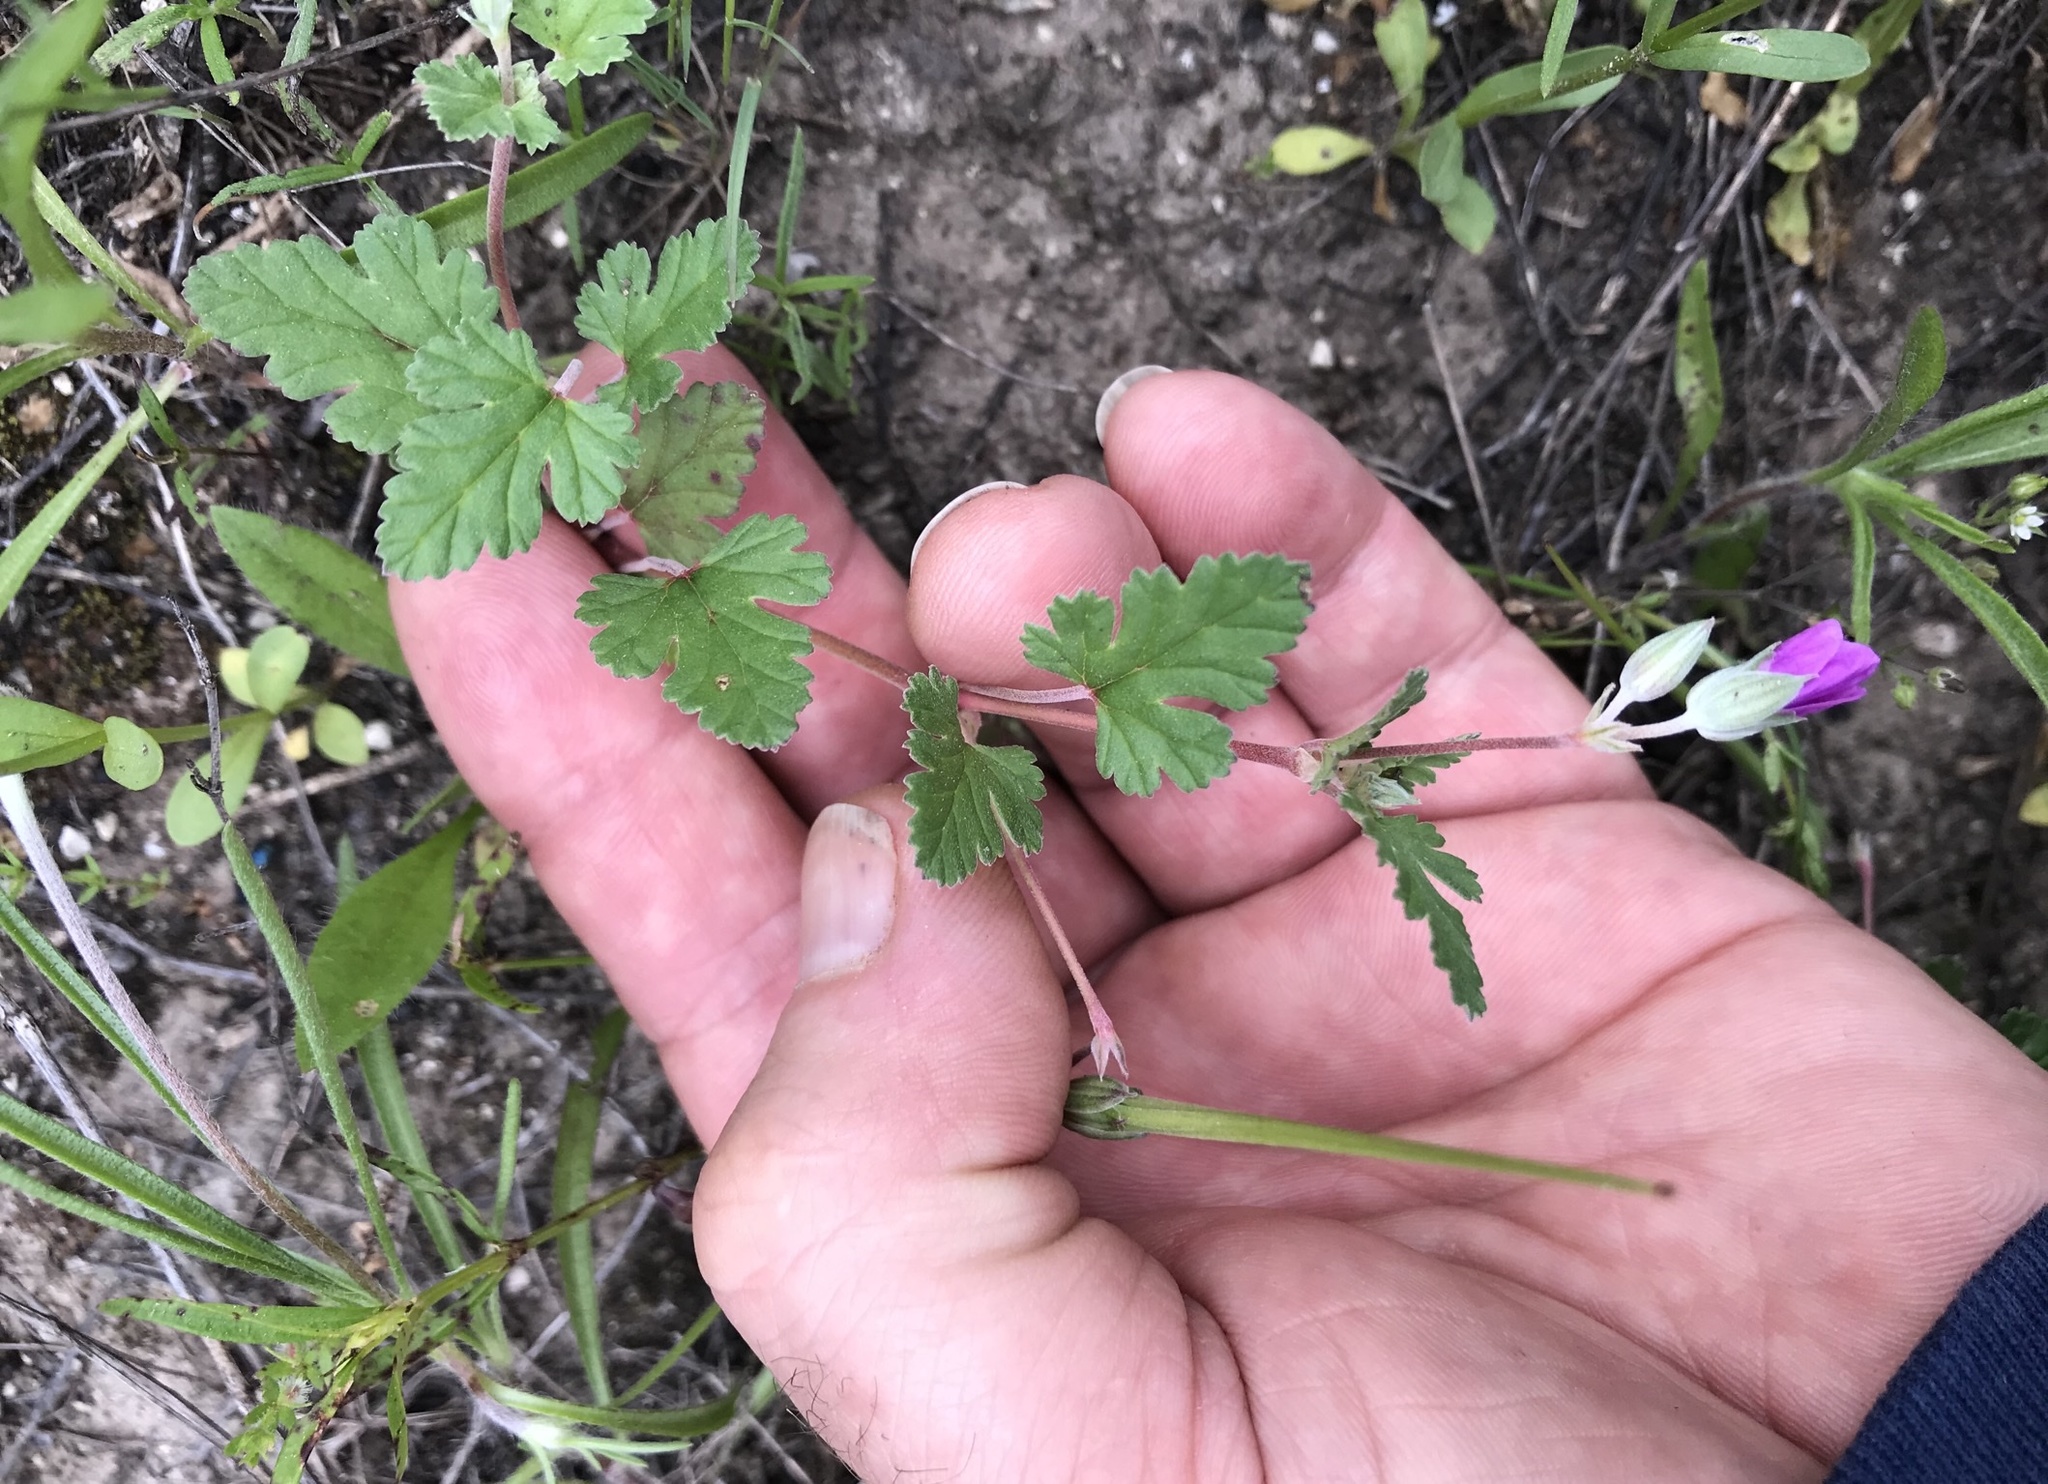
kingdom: Plantae
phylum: Tracheophyta
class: Magnoliopsida
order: Geraniales
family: Geraniaceae
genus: Erodium
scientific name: Erodium texanum
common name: Texas stork's-bill
